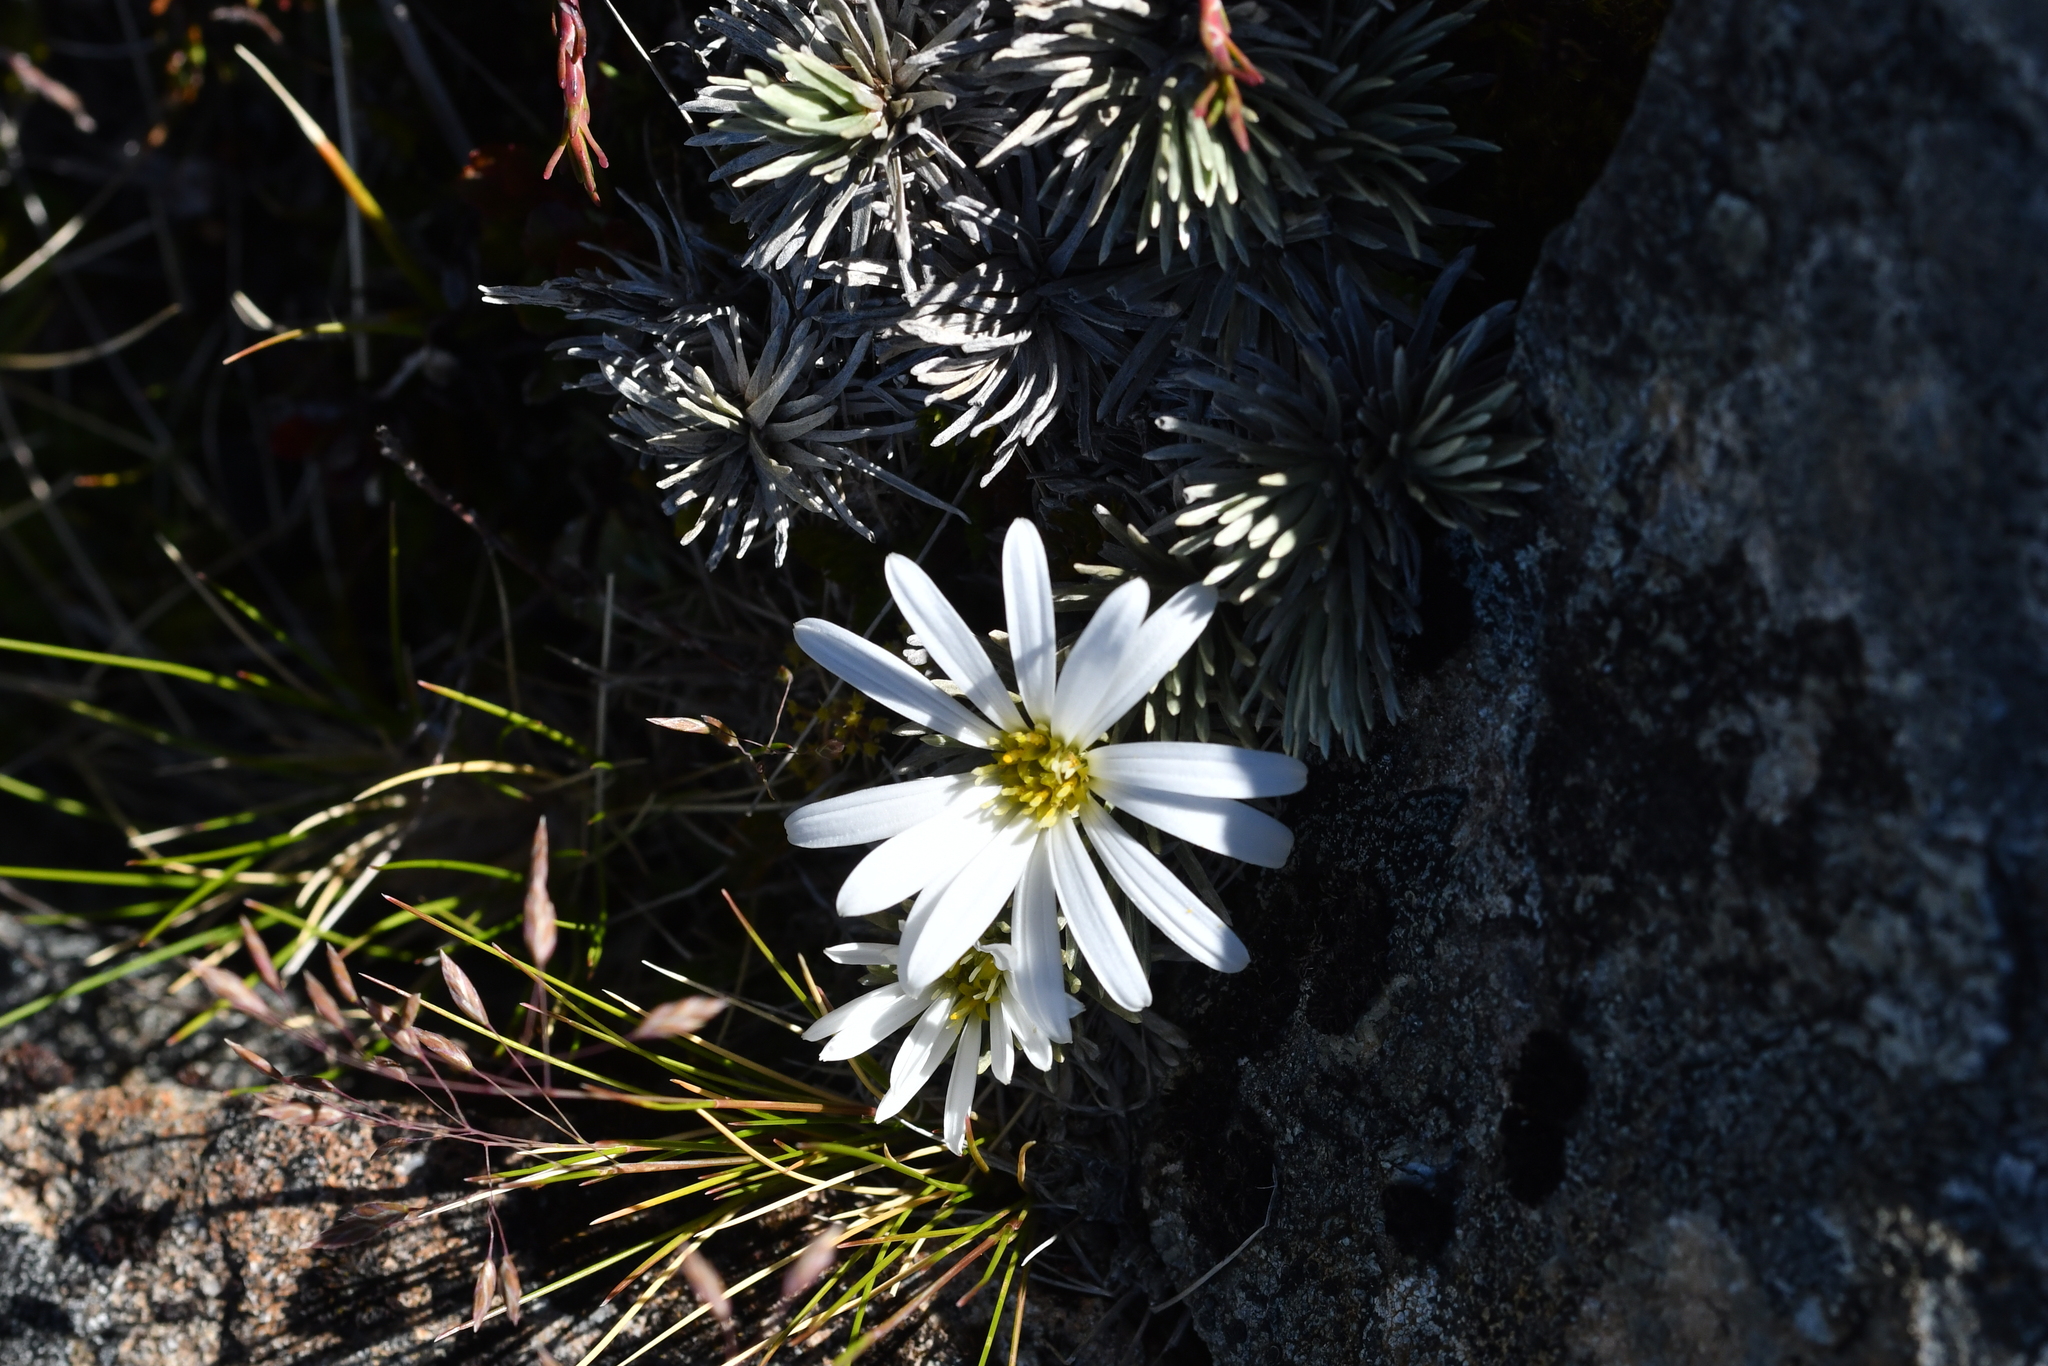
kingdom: Plantae
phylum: Tracheophyta
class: Magnoliopsida
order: Asterales
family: Asteraceae
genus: Celmisia
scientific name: Celmisia sessiliflora
